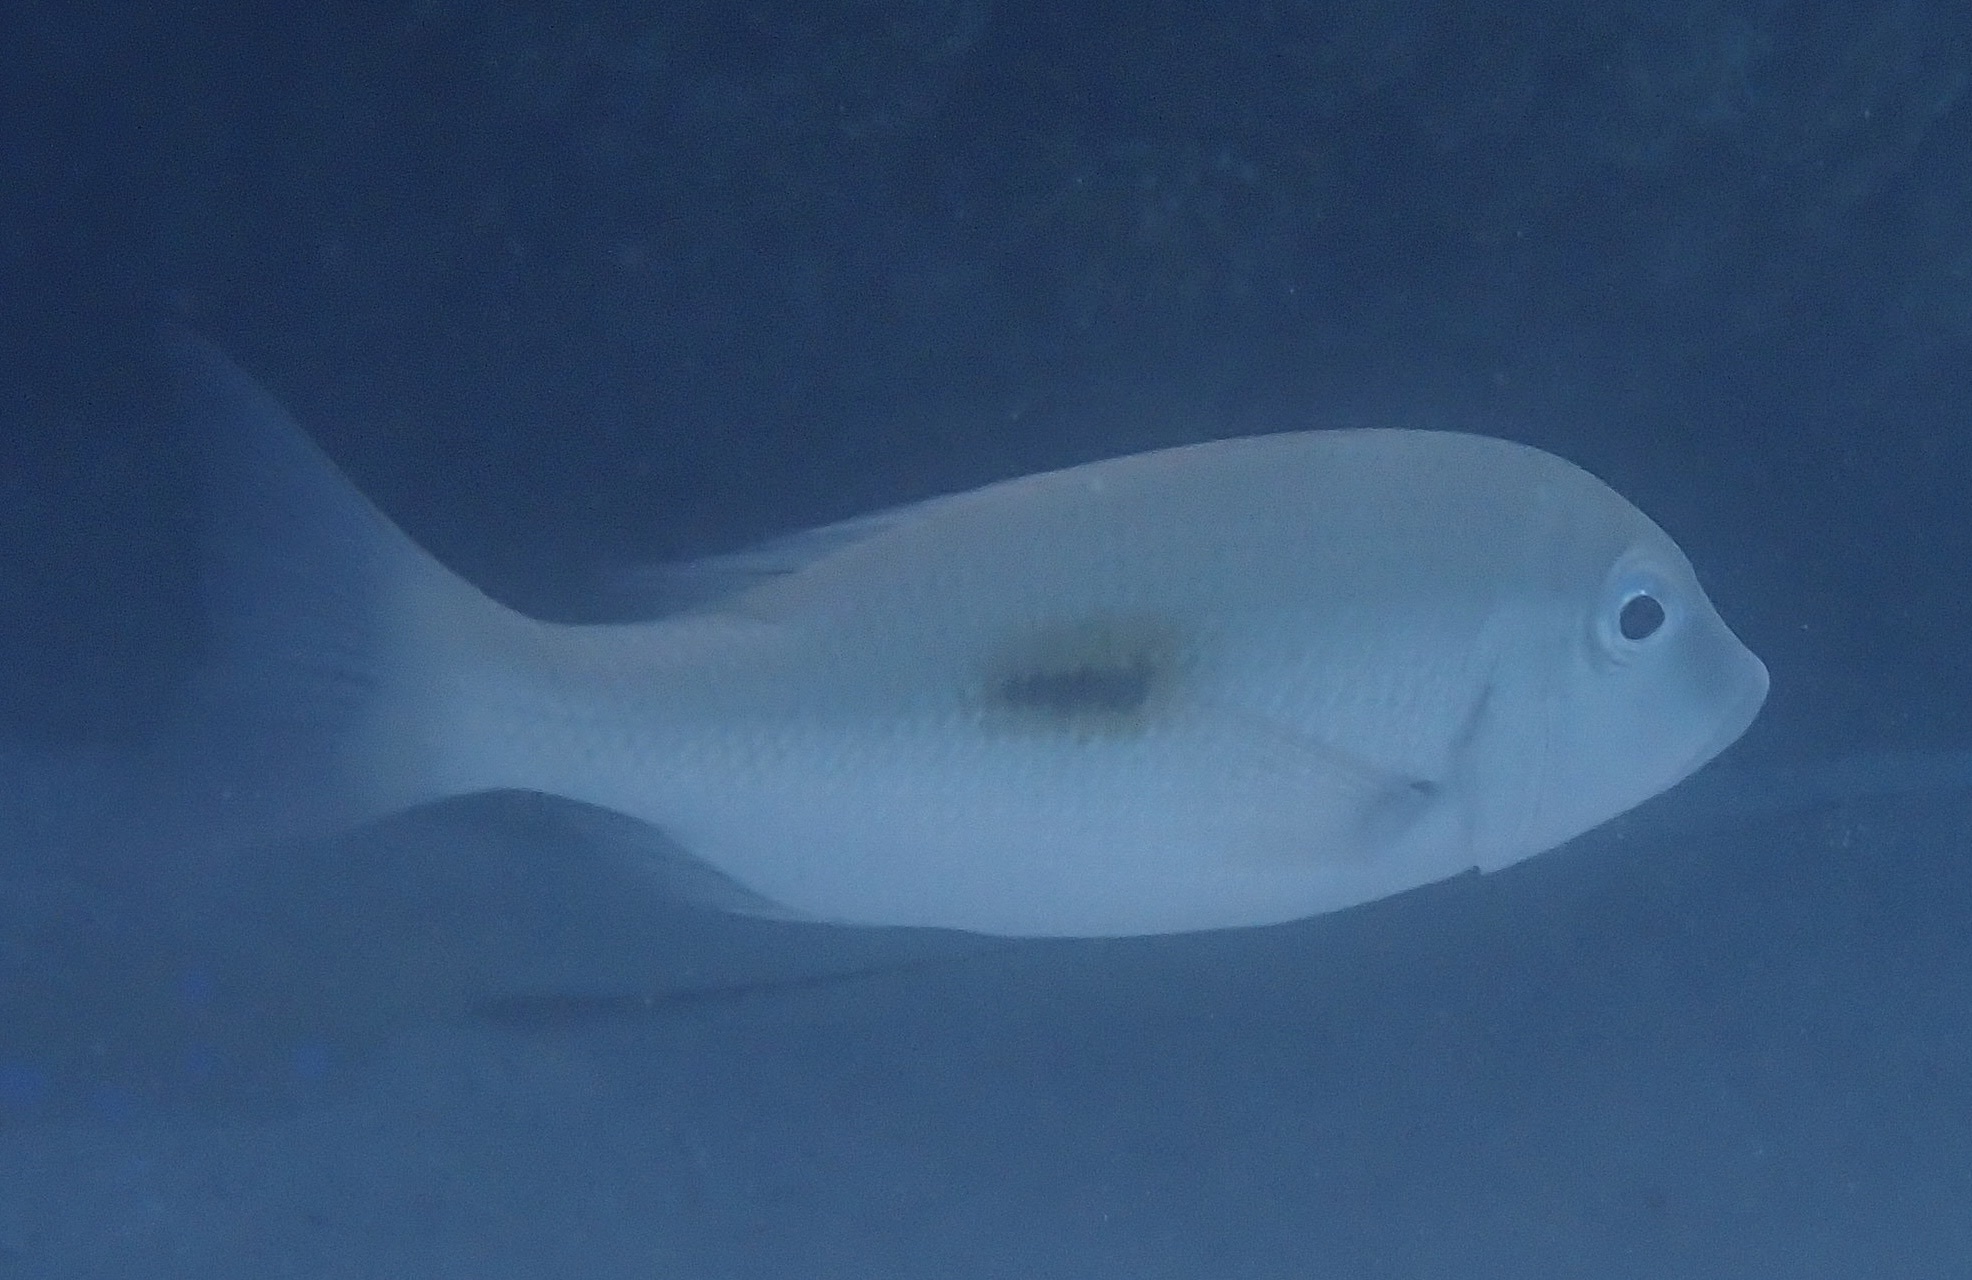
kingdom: Animalia
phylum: Chordata
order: Perciformes
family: Lethrinidae
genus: Lethrinus
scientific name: Lethrinus harak
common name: Blackspot emperor
